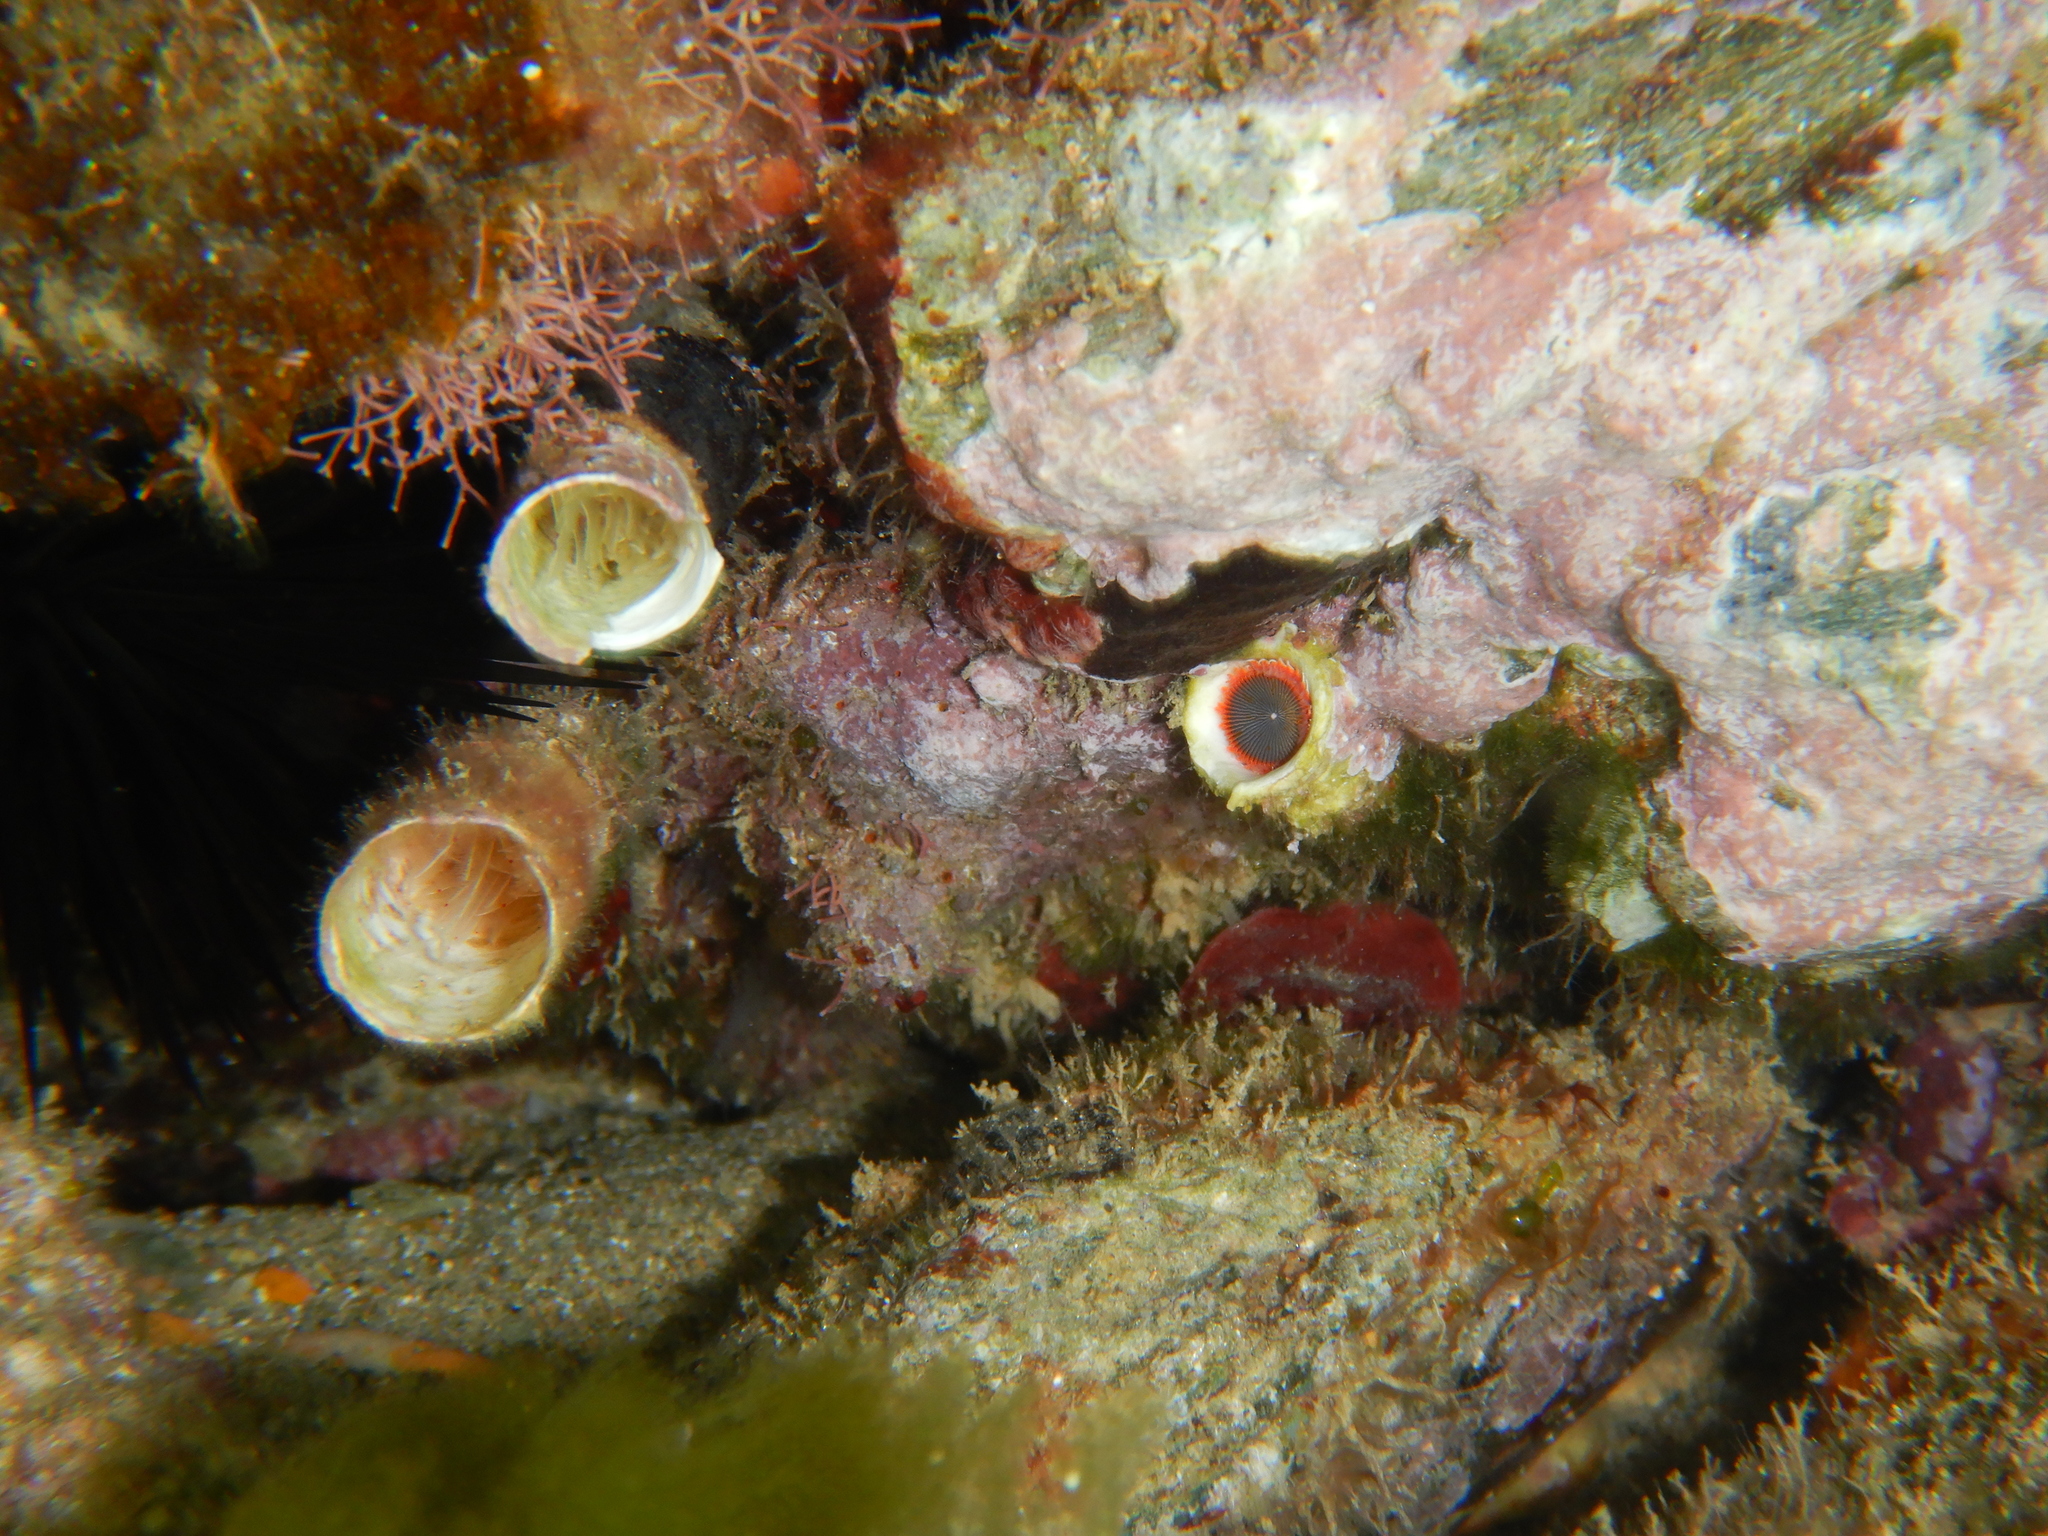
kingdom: Animalia
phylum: Annelida
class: Polychaeta
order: Sabellida
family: Serpulidae
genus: Serpula
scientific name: Serpula vermicularis
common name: Calcareous tubeworm
